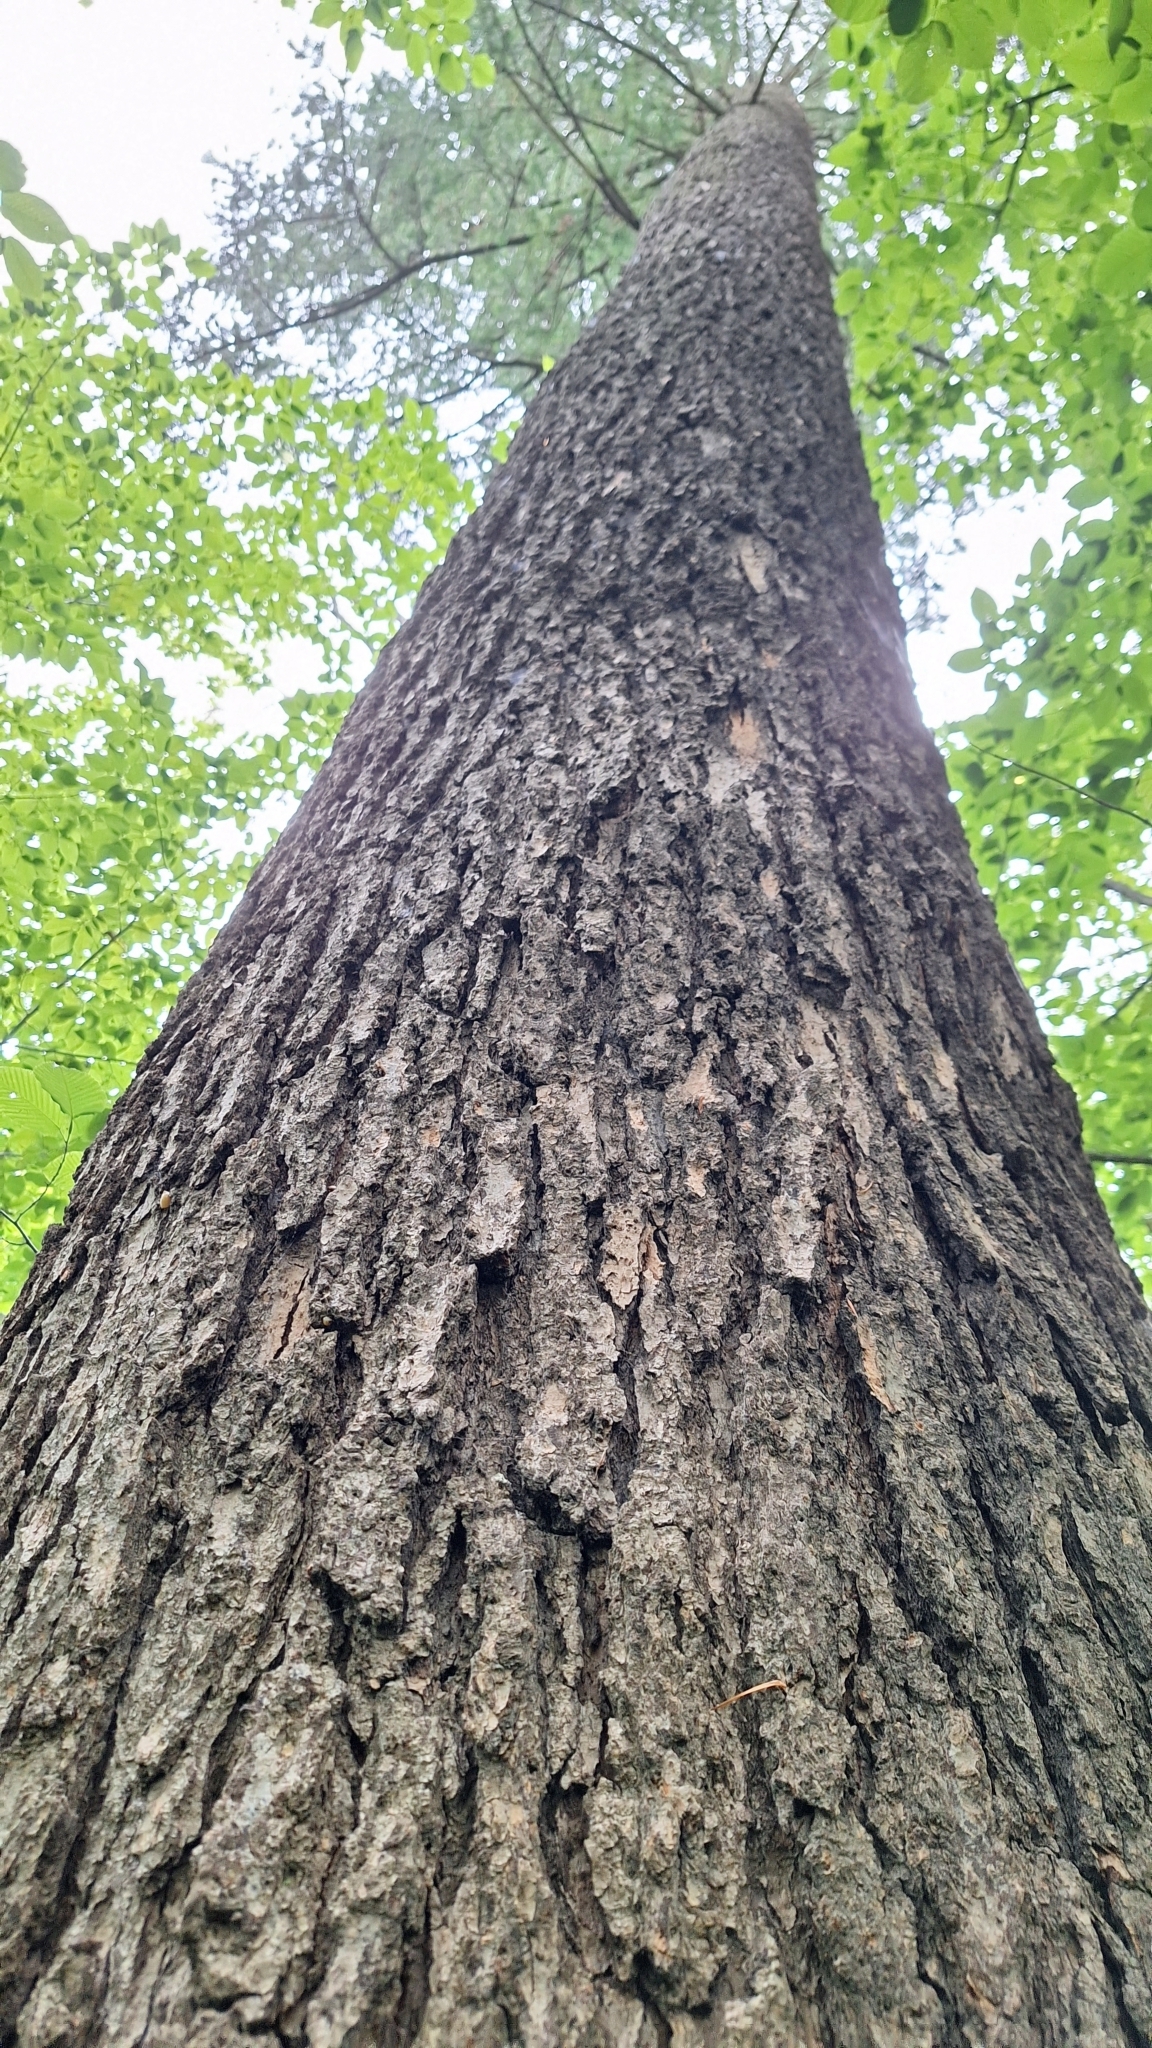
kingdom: Plantae
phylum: Tracheophyta
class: Pinopsida
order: Pinales
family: Pinaceae
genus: Abies
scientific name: Abies holophylla
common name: Manchurian fir
